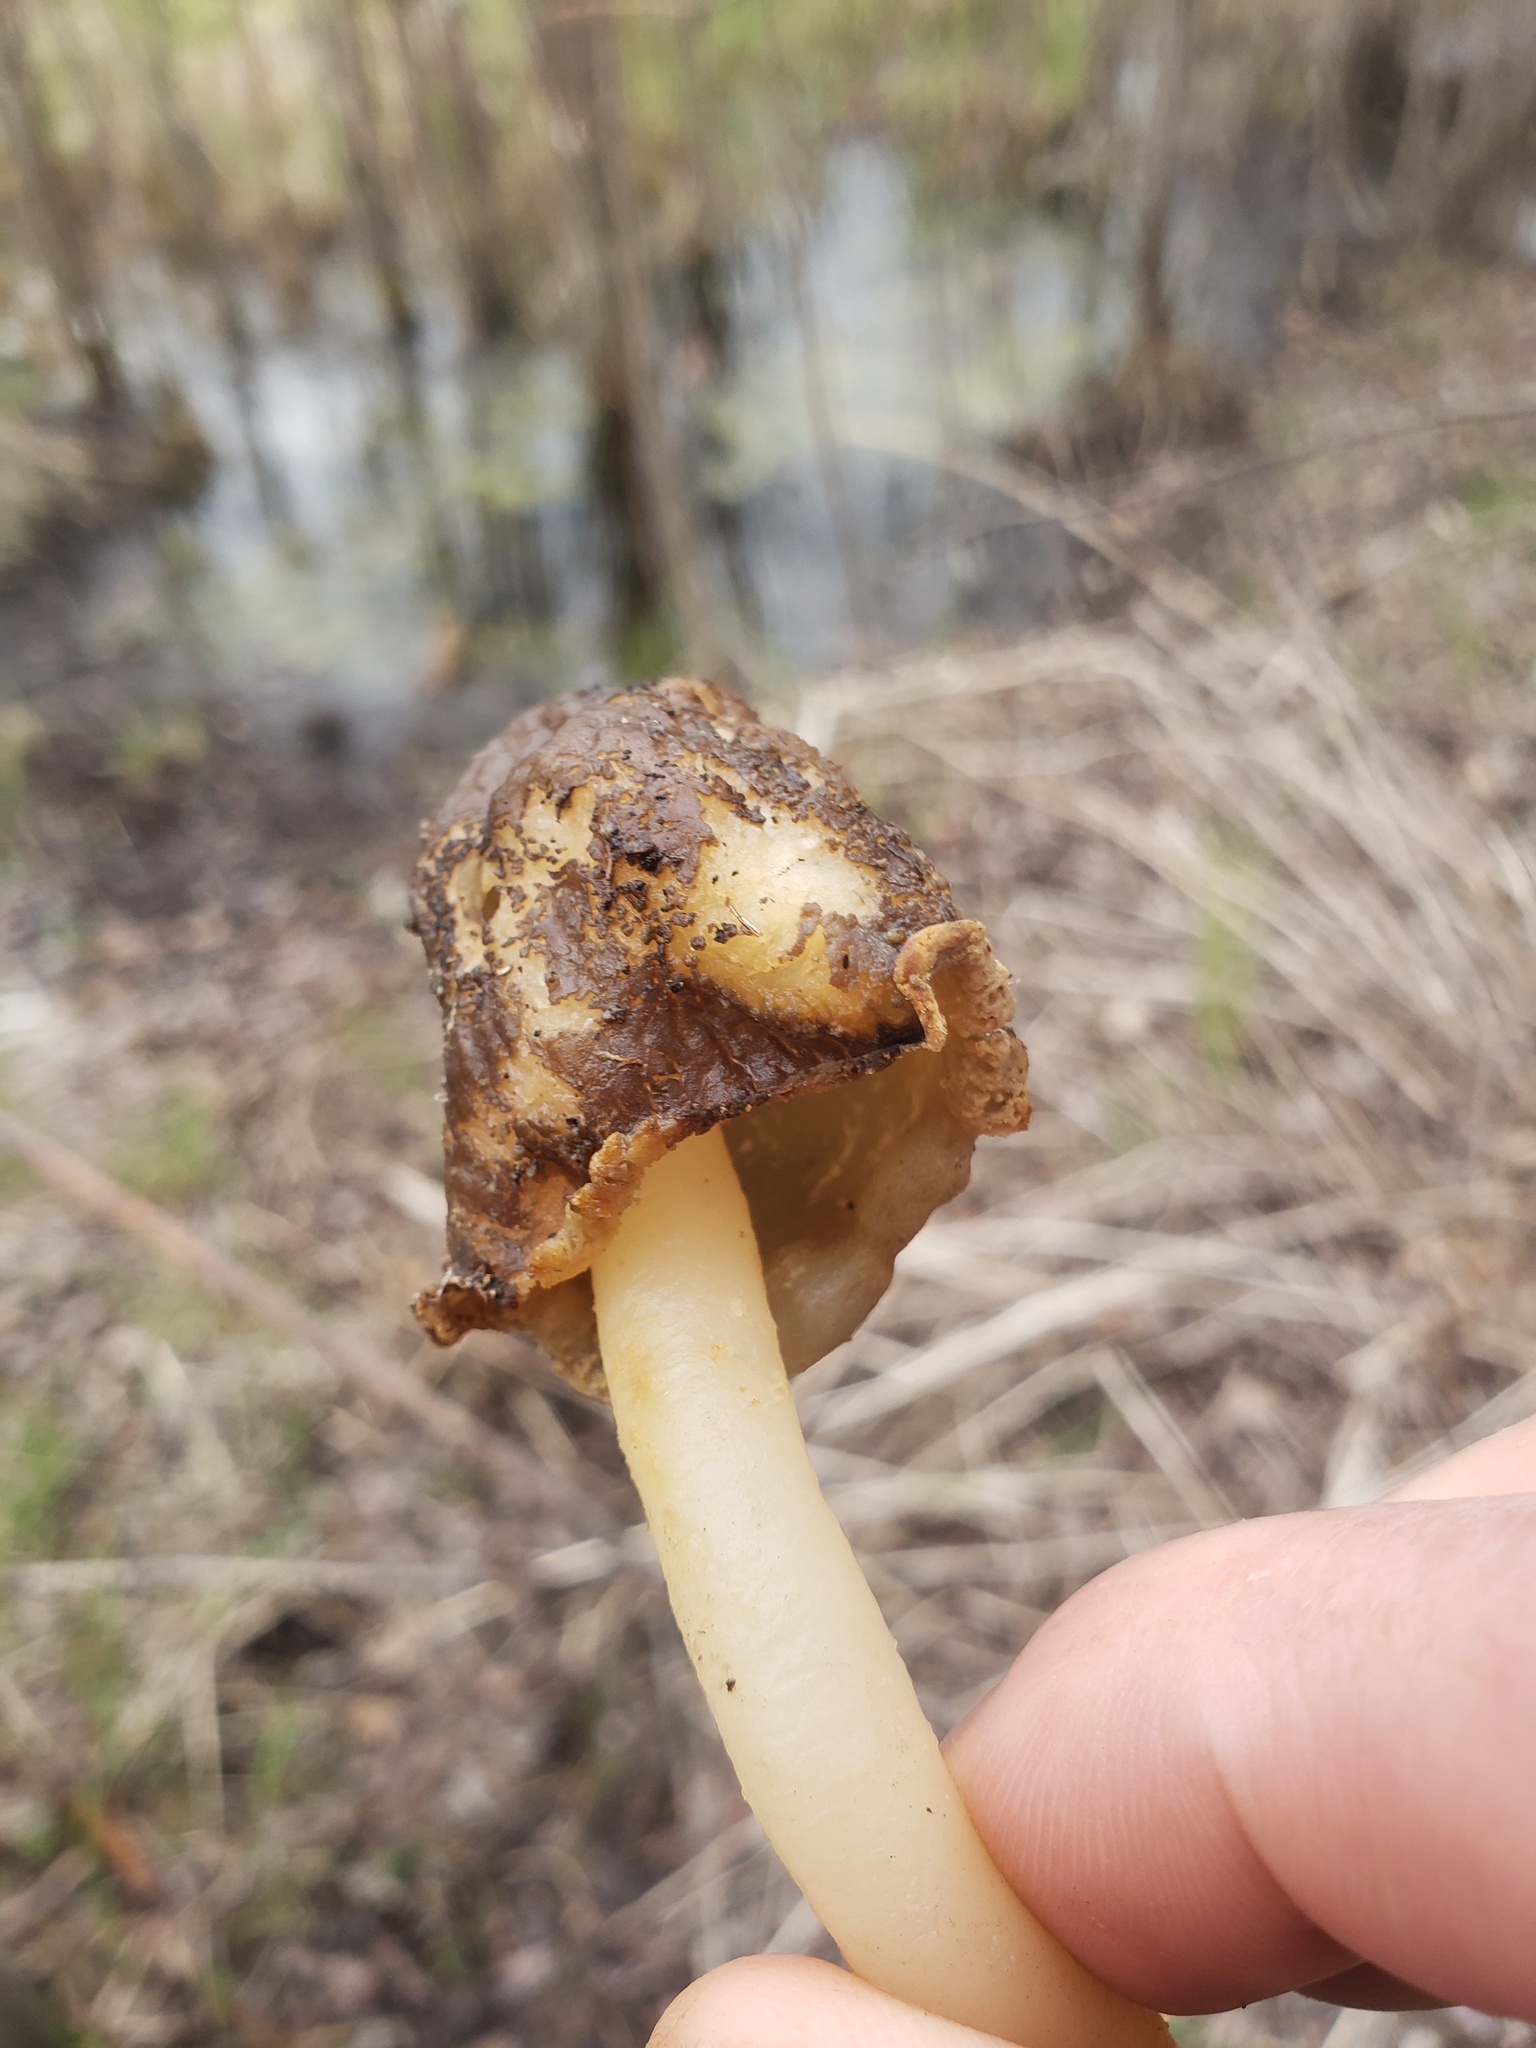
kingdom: Fungi
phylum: Ascomycota
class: Pezizomycetes
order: Pezizales
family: Morchellaceae
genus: Verpa
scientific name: Verpa conica
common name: Thimble morel
